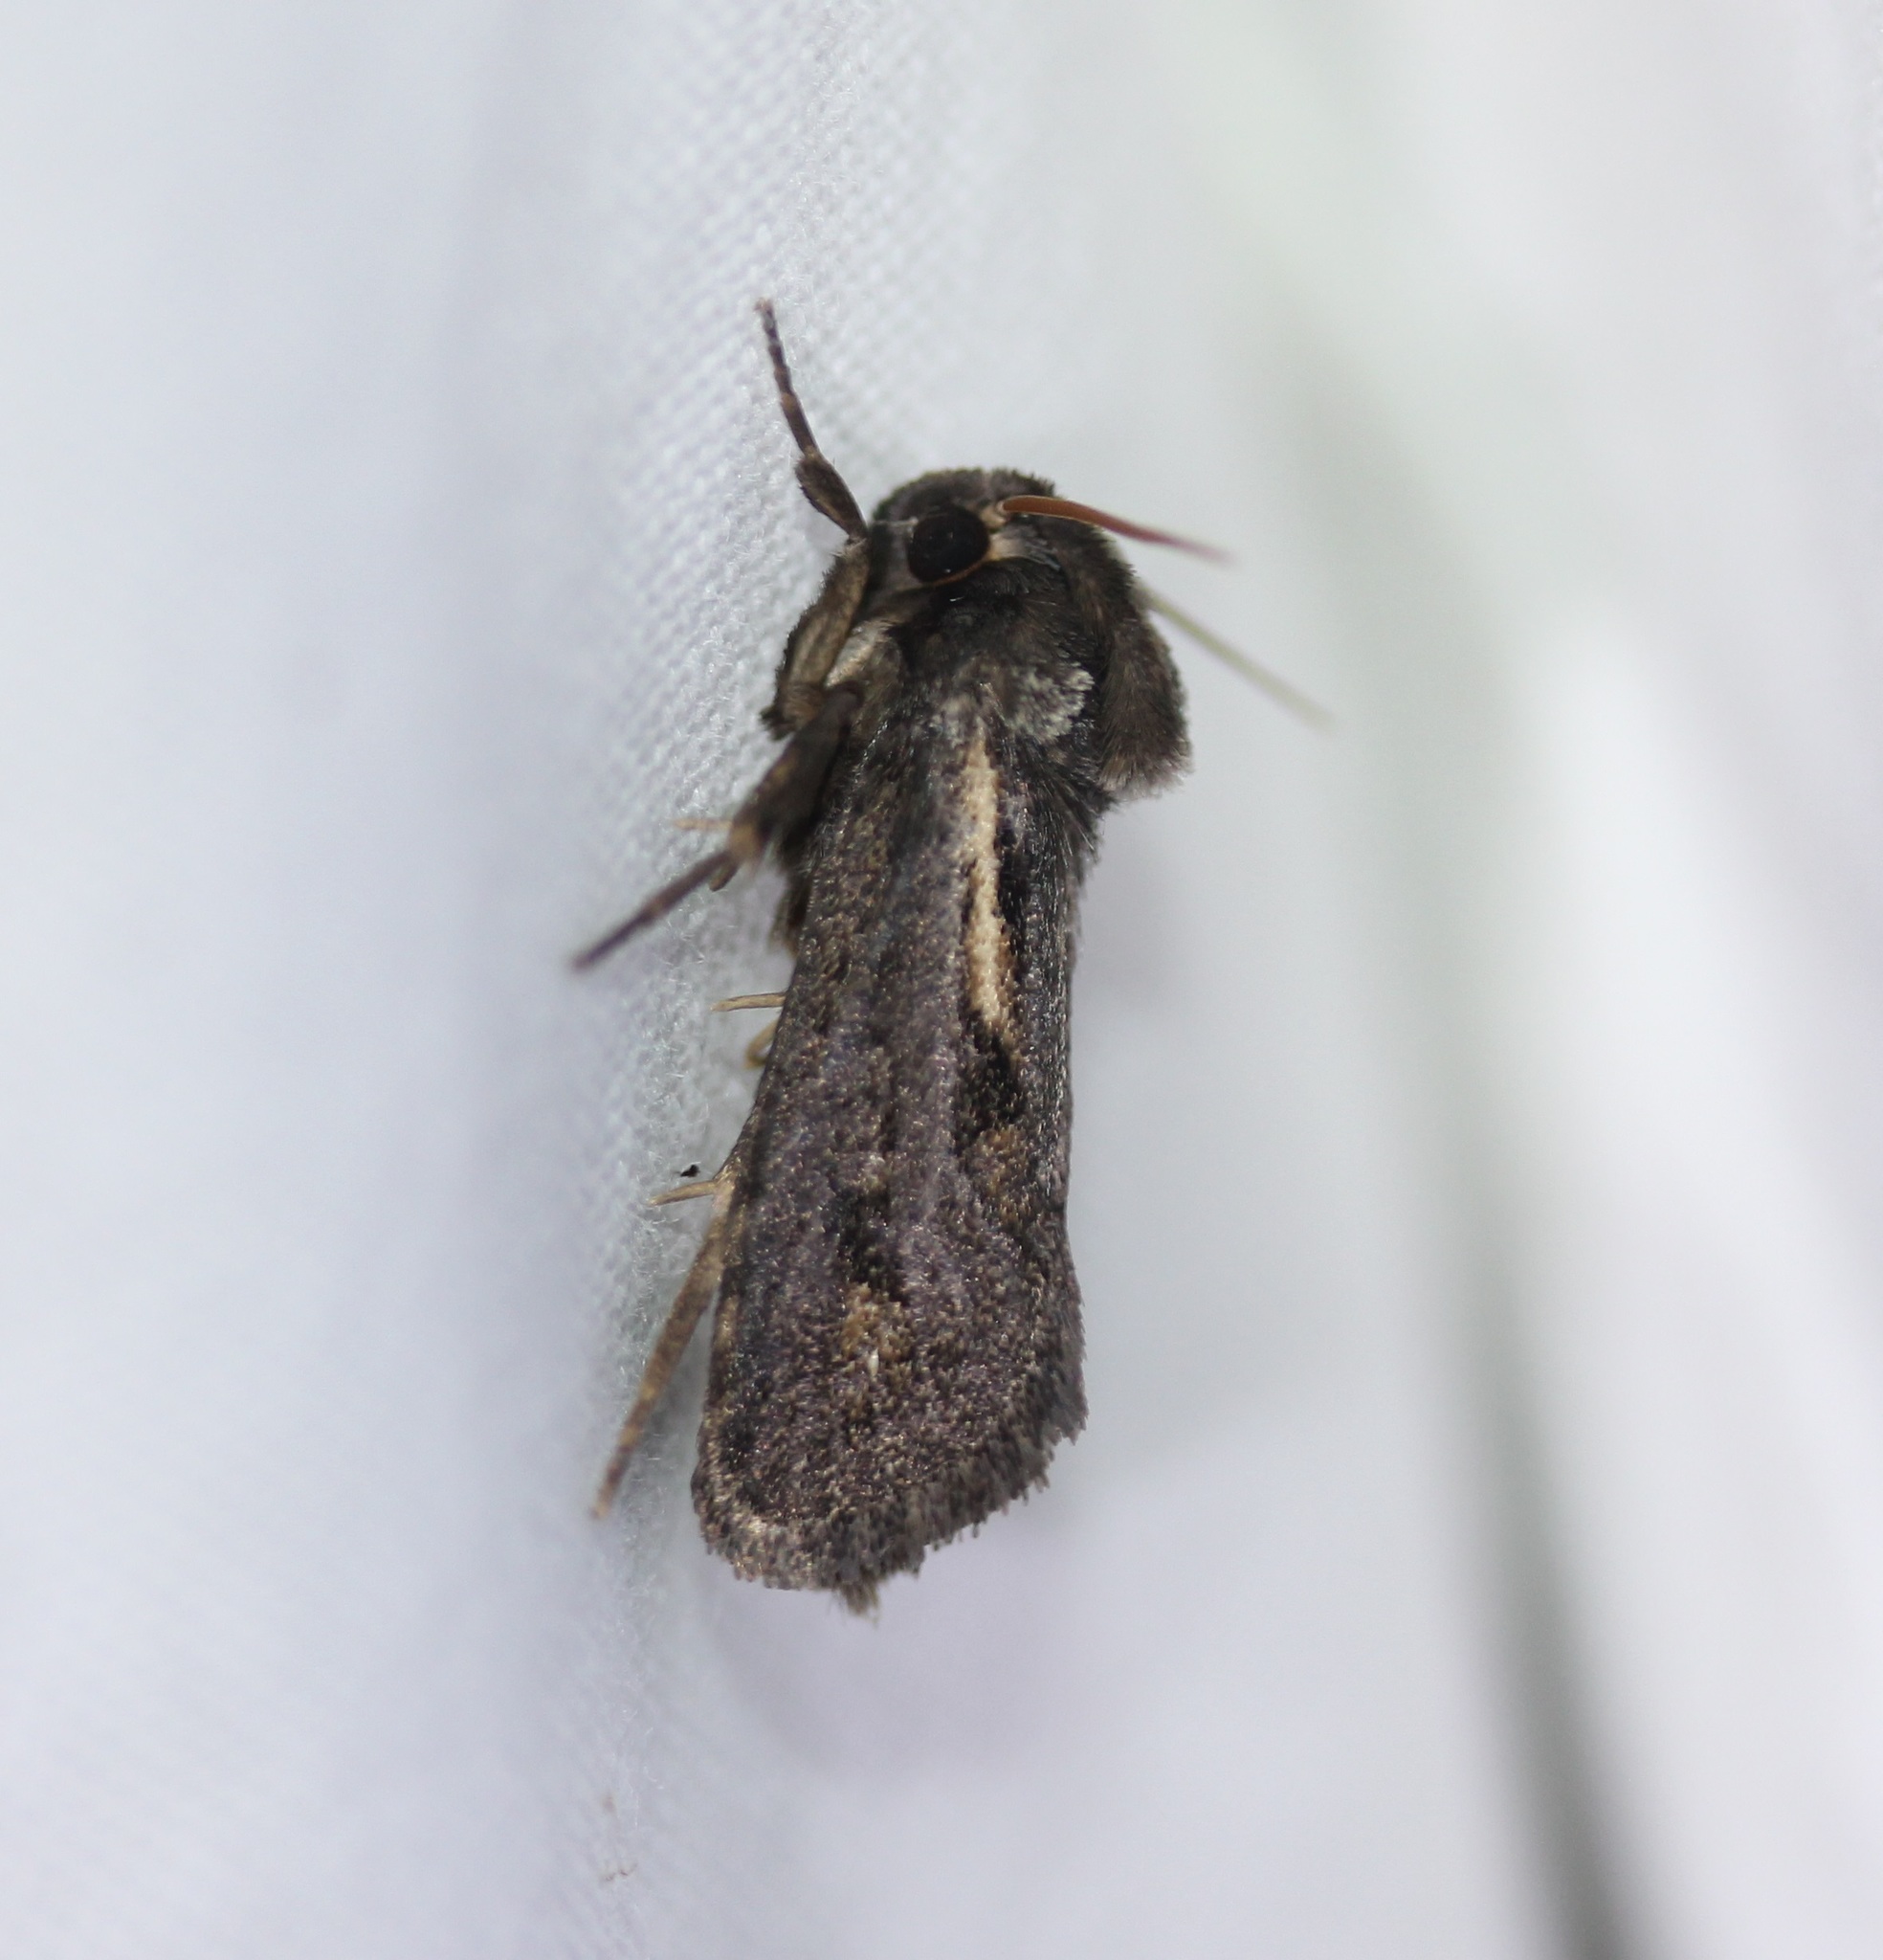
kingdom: Animalia
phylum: Arthropoda
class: Insecta
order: Lepidoptera
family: Tineidae
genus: Acrolophus
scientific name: Acrolophus popeanella
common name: Clemens' grass tubeworm moth
